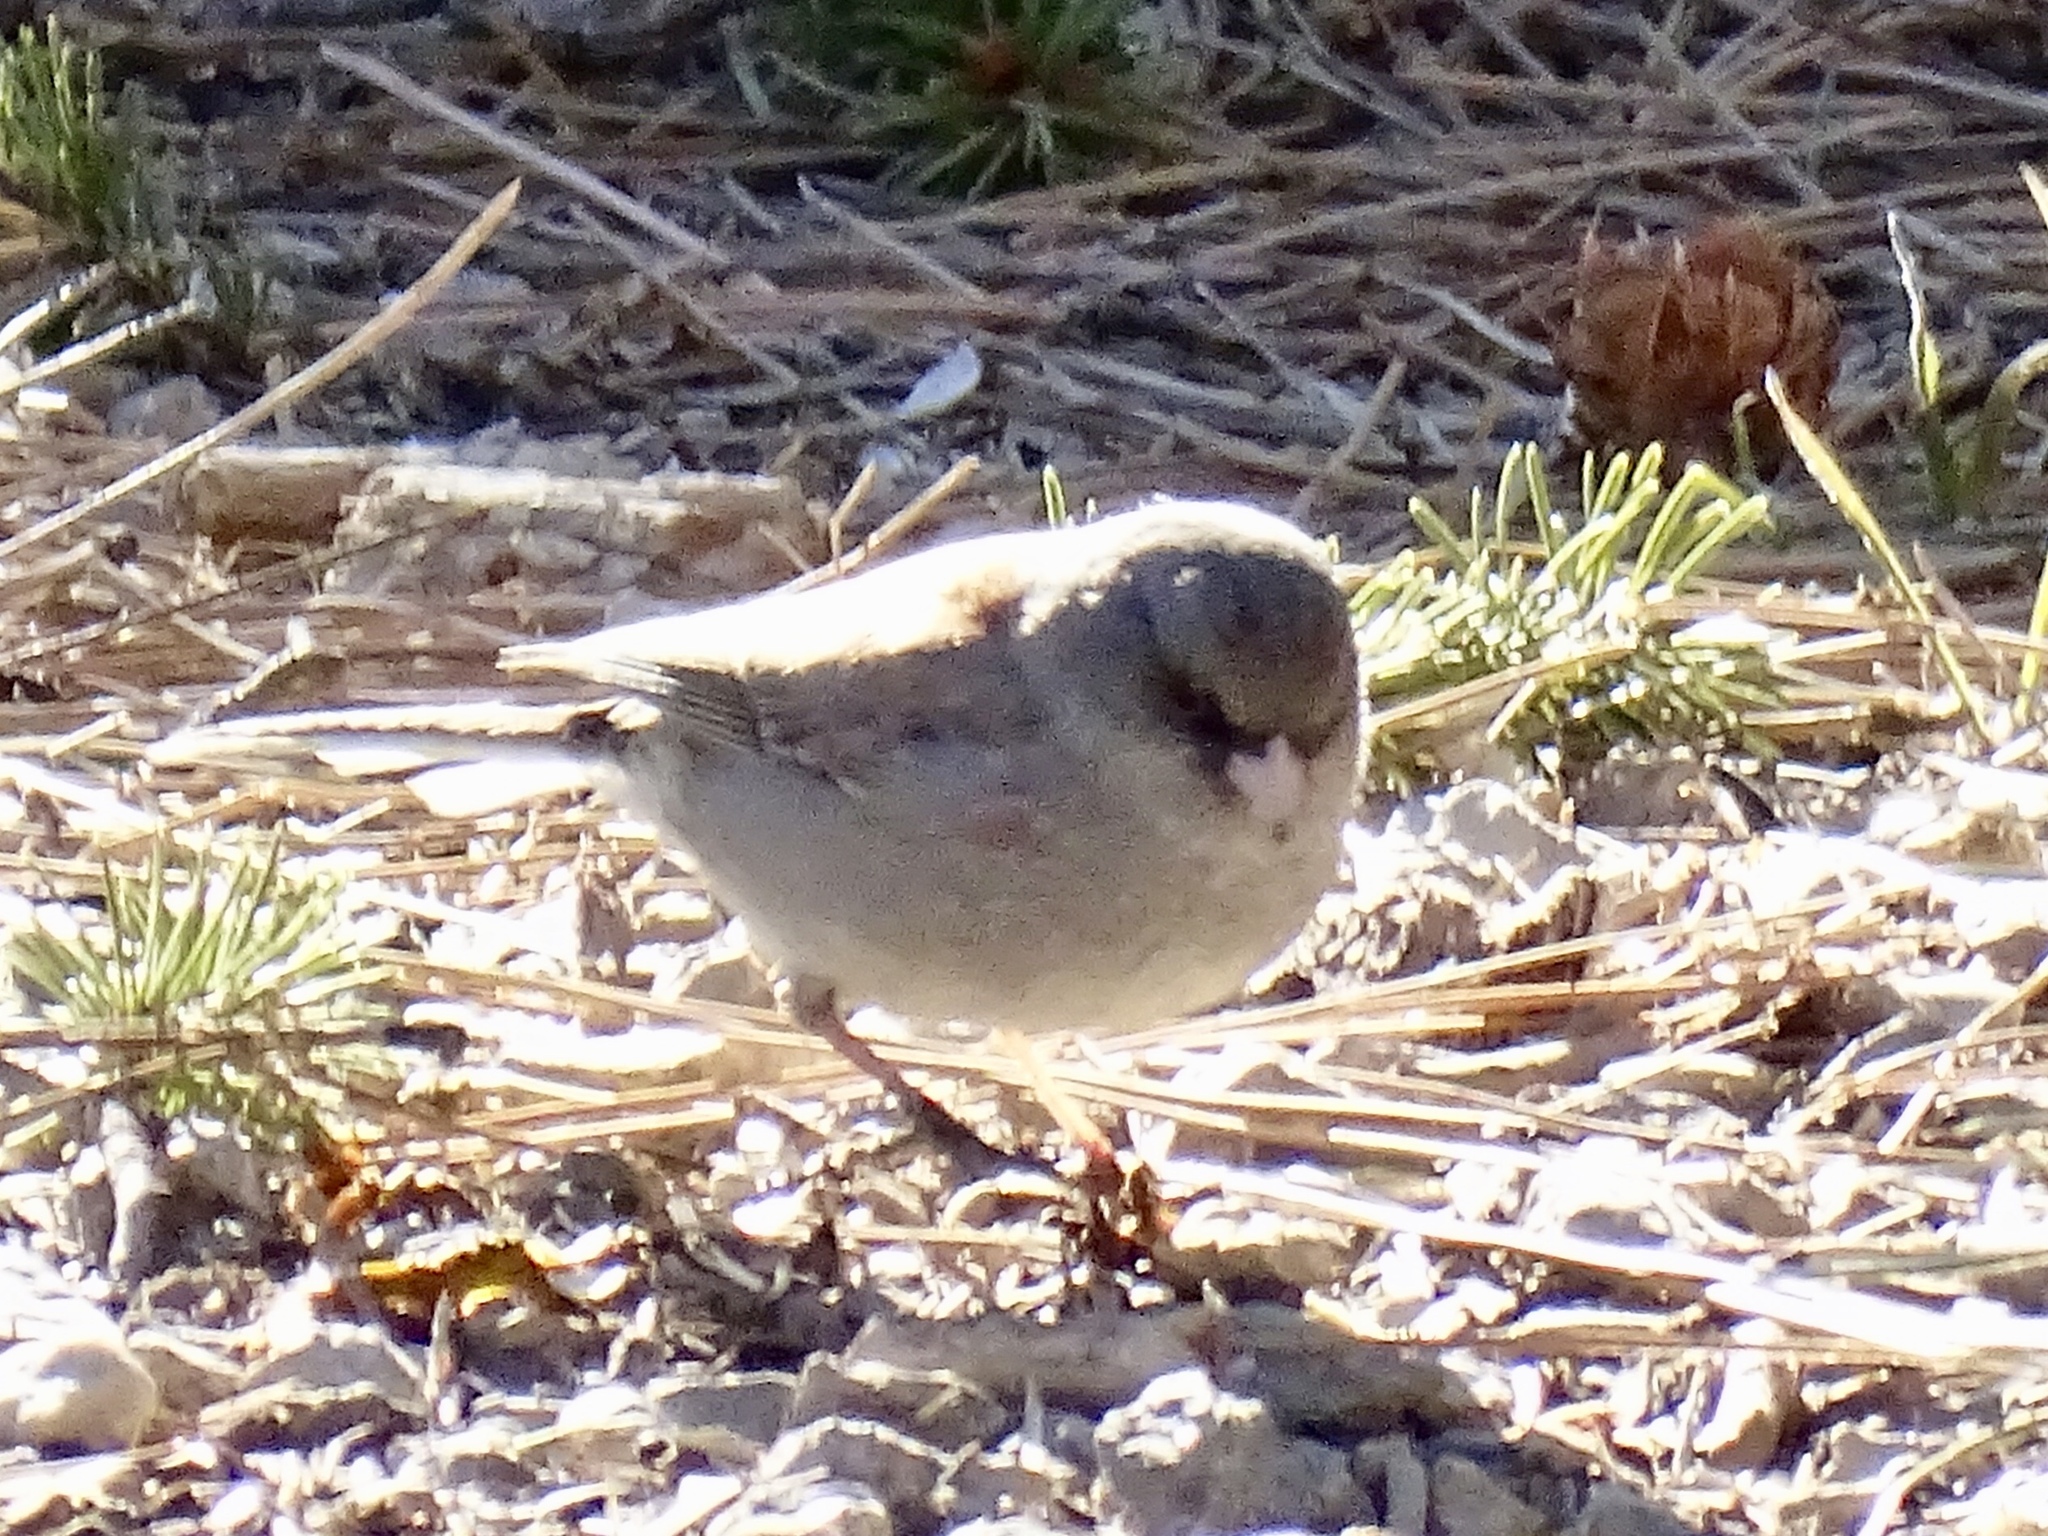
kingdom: Animalia
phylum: Chordata
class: Aves
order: Passeriformes
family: Passerellidae
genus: Junco
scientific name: Junco hyemalis
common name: Dark-eyed junco
